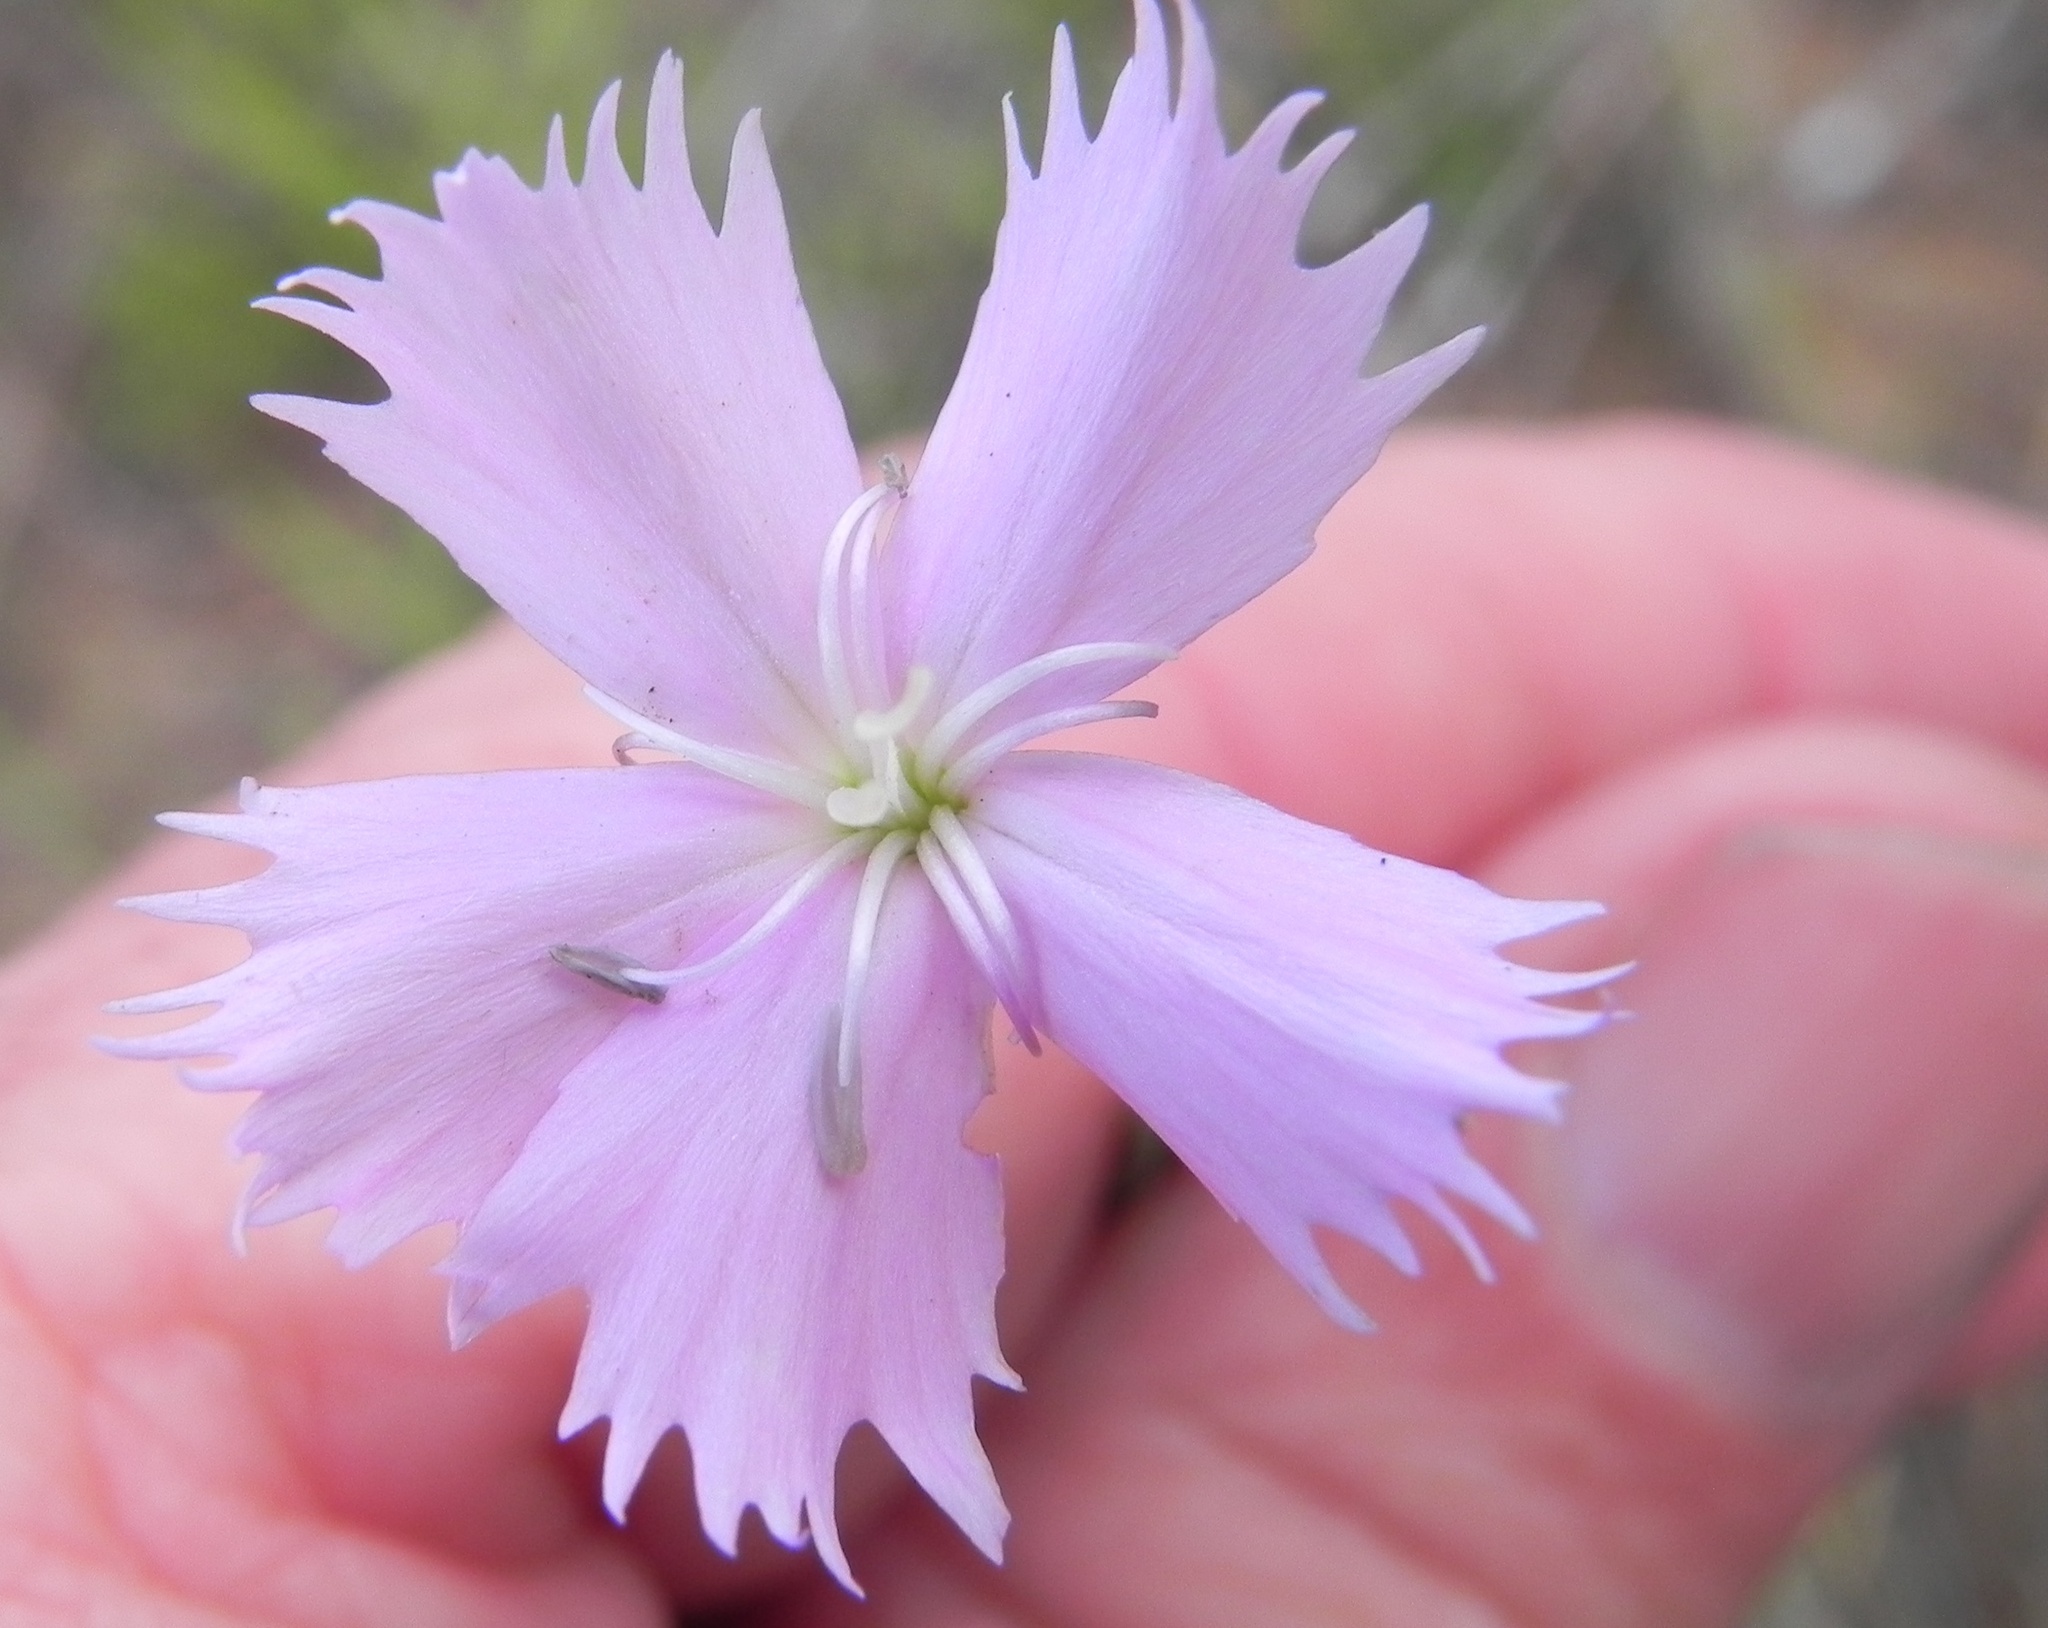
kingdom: Plantae
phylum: Tracheophyta
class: Magnoliopsida
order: Caryophyllales
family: Caryophyllaceae
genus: Dianthus
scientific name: Dianthus basuticus
